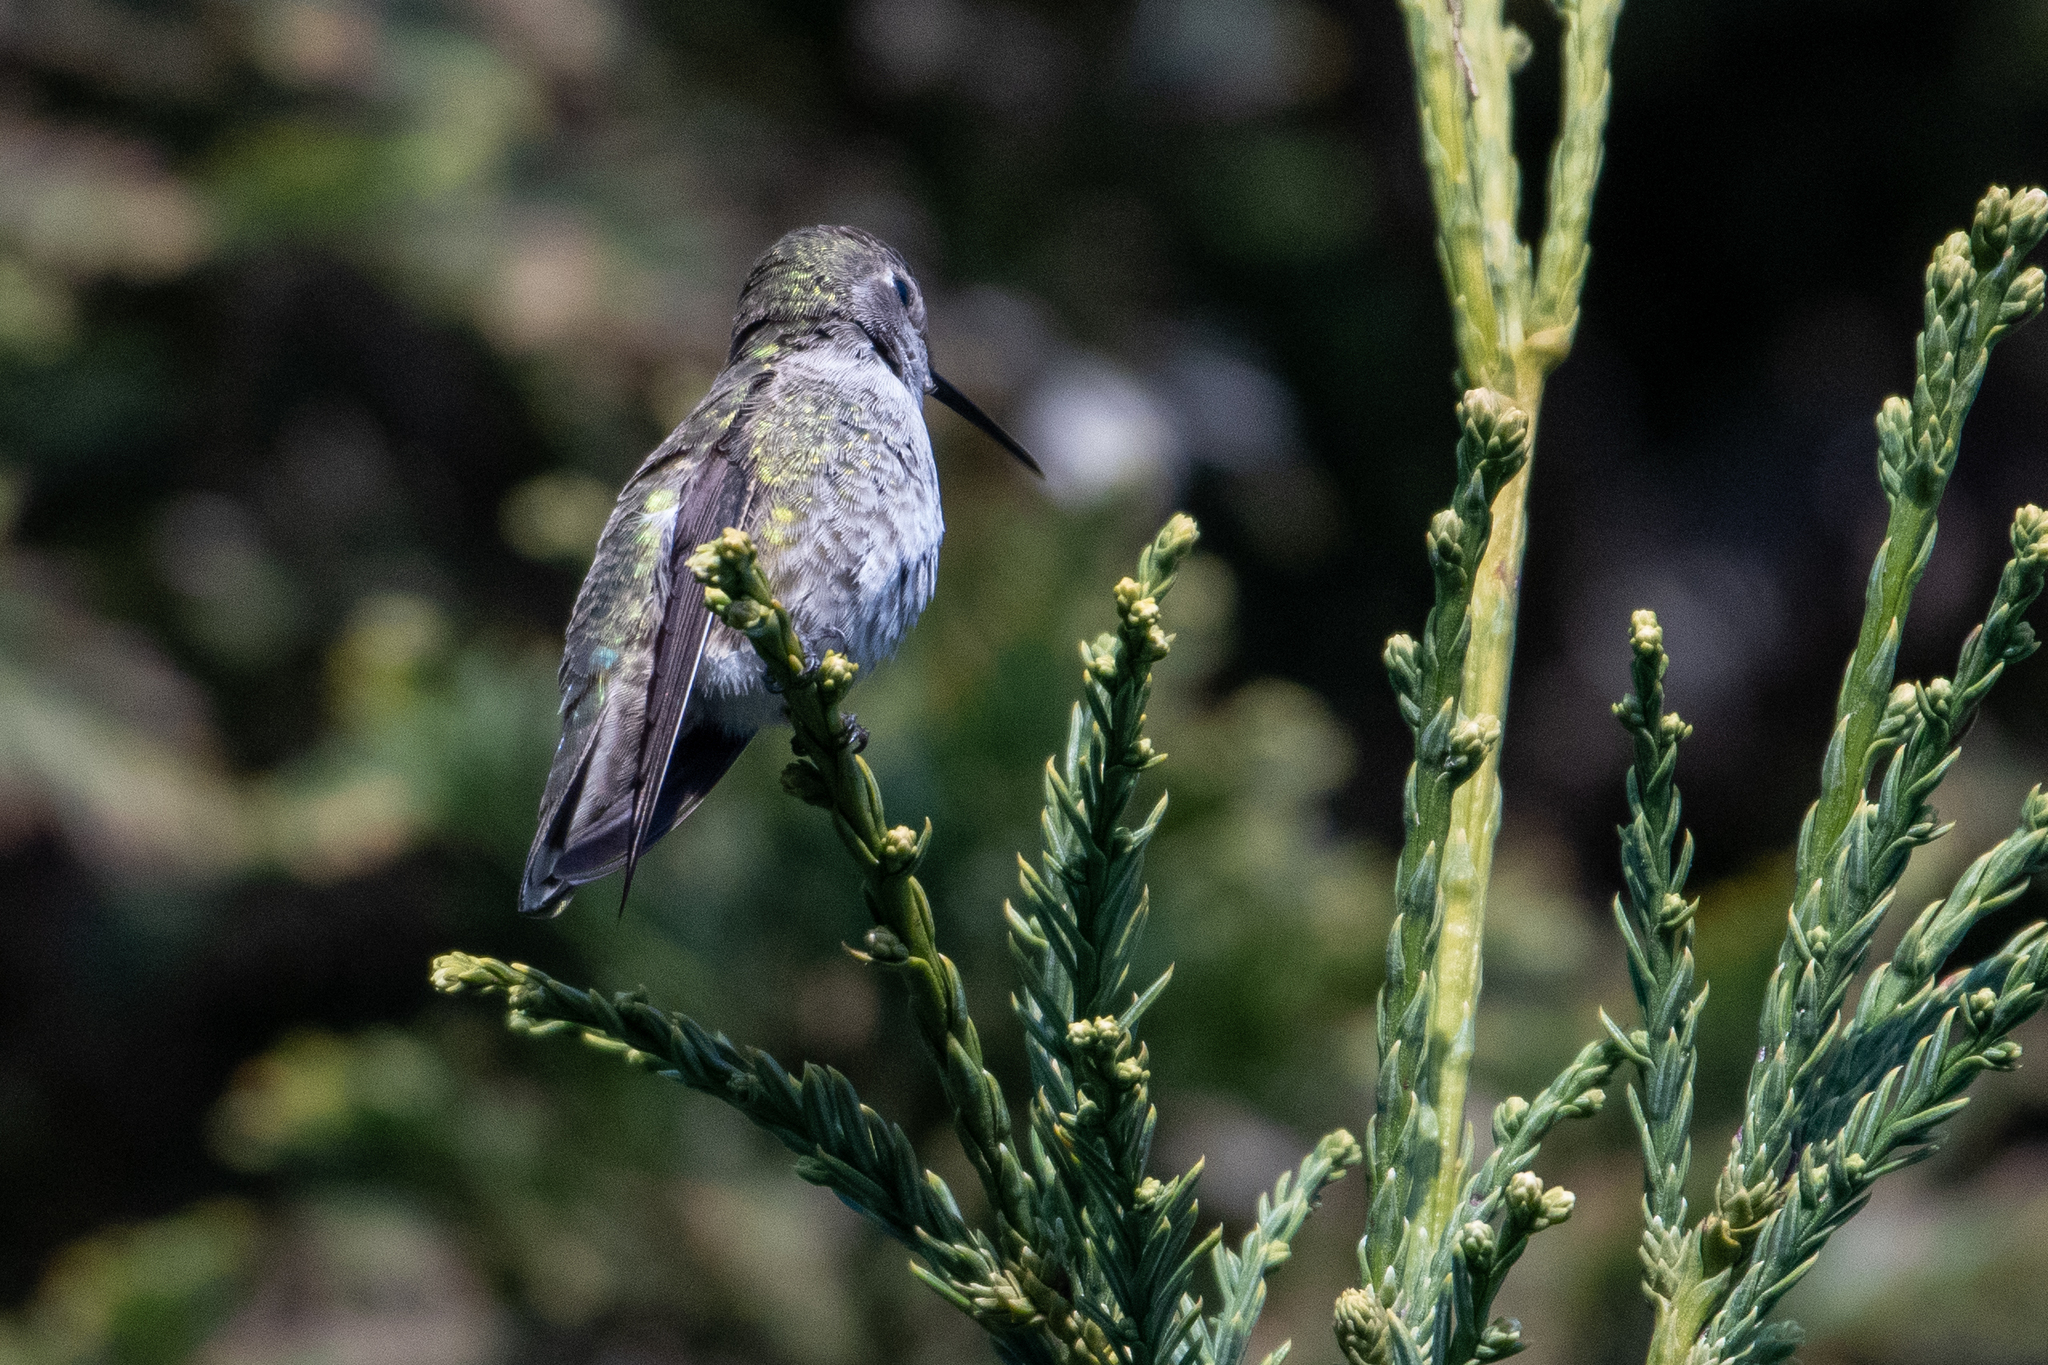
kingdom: Animalia
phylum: Chordata
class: Aves
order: Apodiformes
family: Trochilidae
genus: Calypte
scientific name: Calypte anna
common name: Anna's hummingbird
